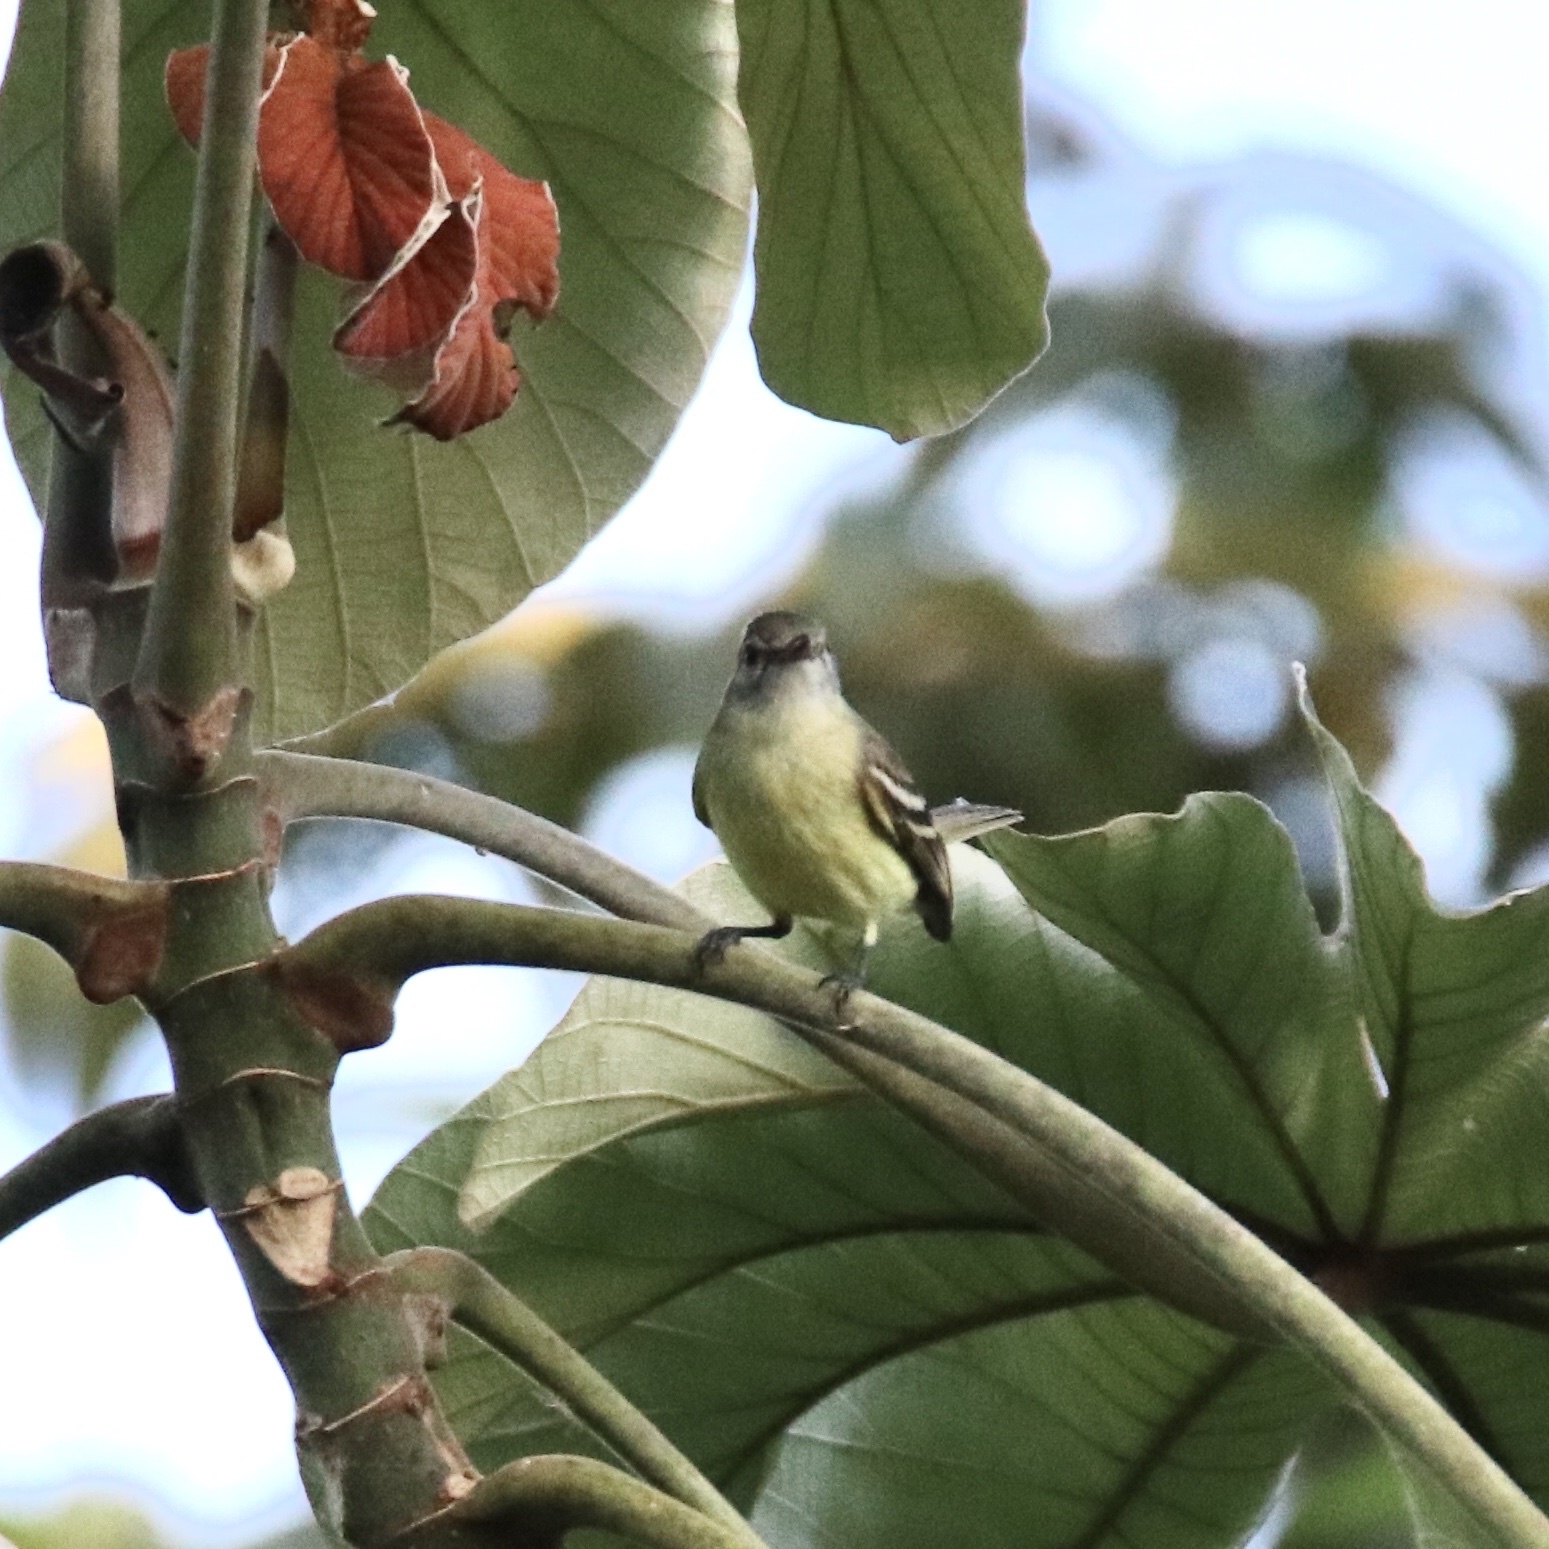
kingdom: Animalia
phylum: Chordata
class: Aves
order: Passeriformes
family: Tyrannidae
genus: Camptostoma
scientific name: Camptostoma obsoletum
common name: Southern beardless-tyrannulet
